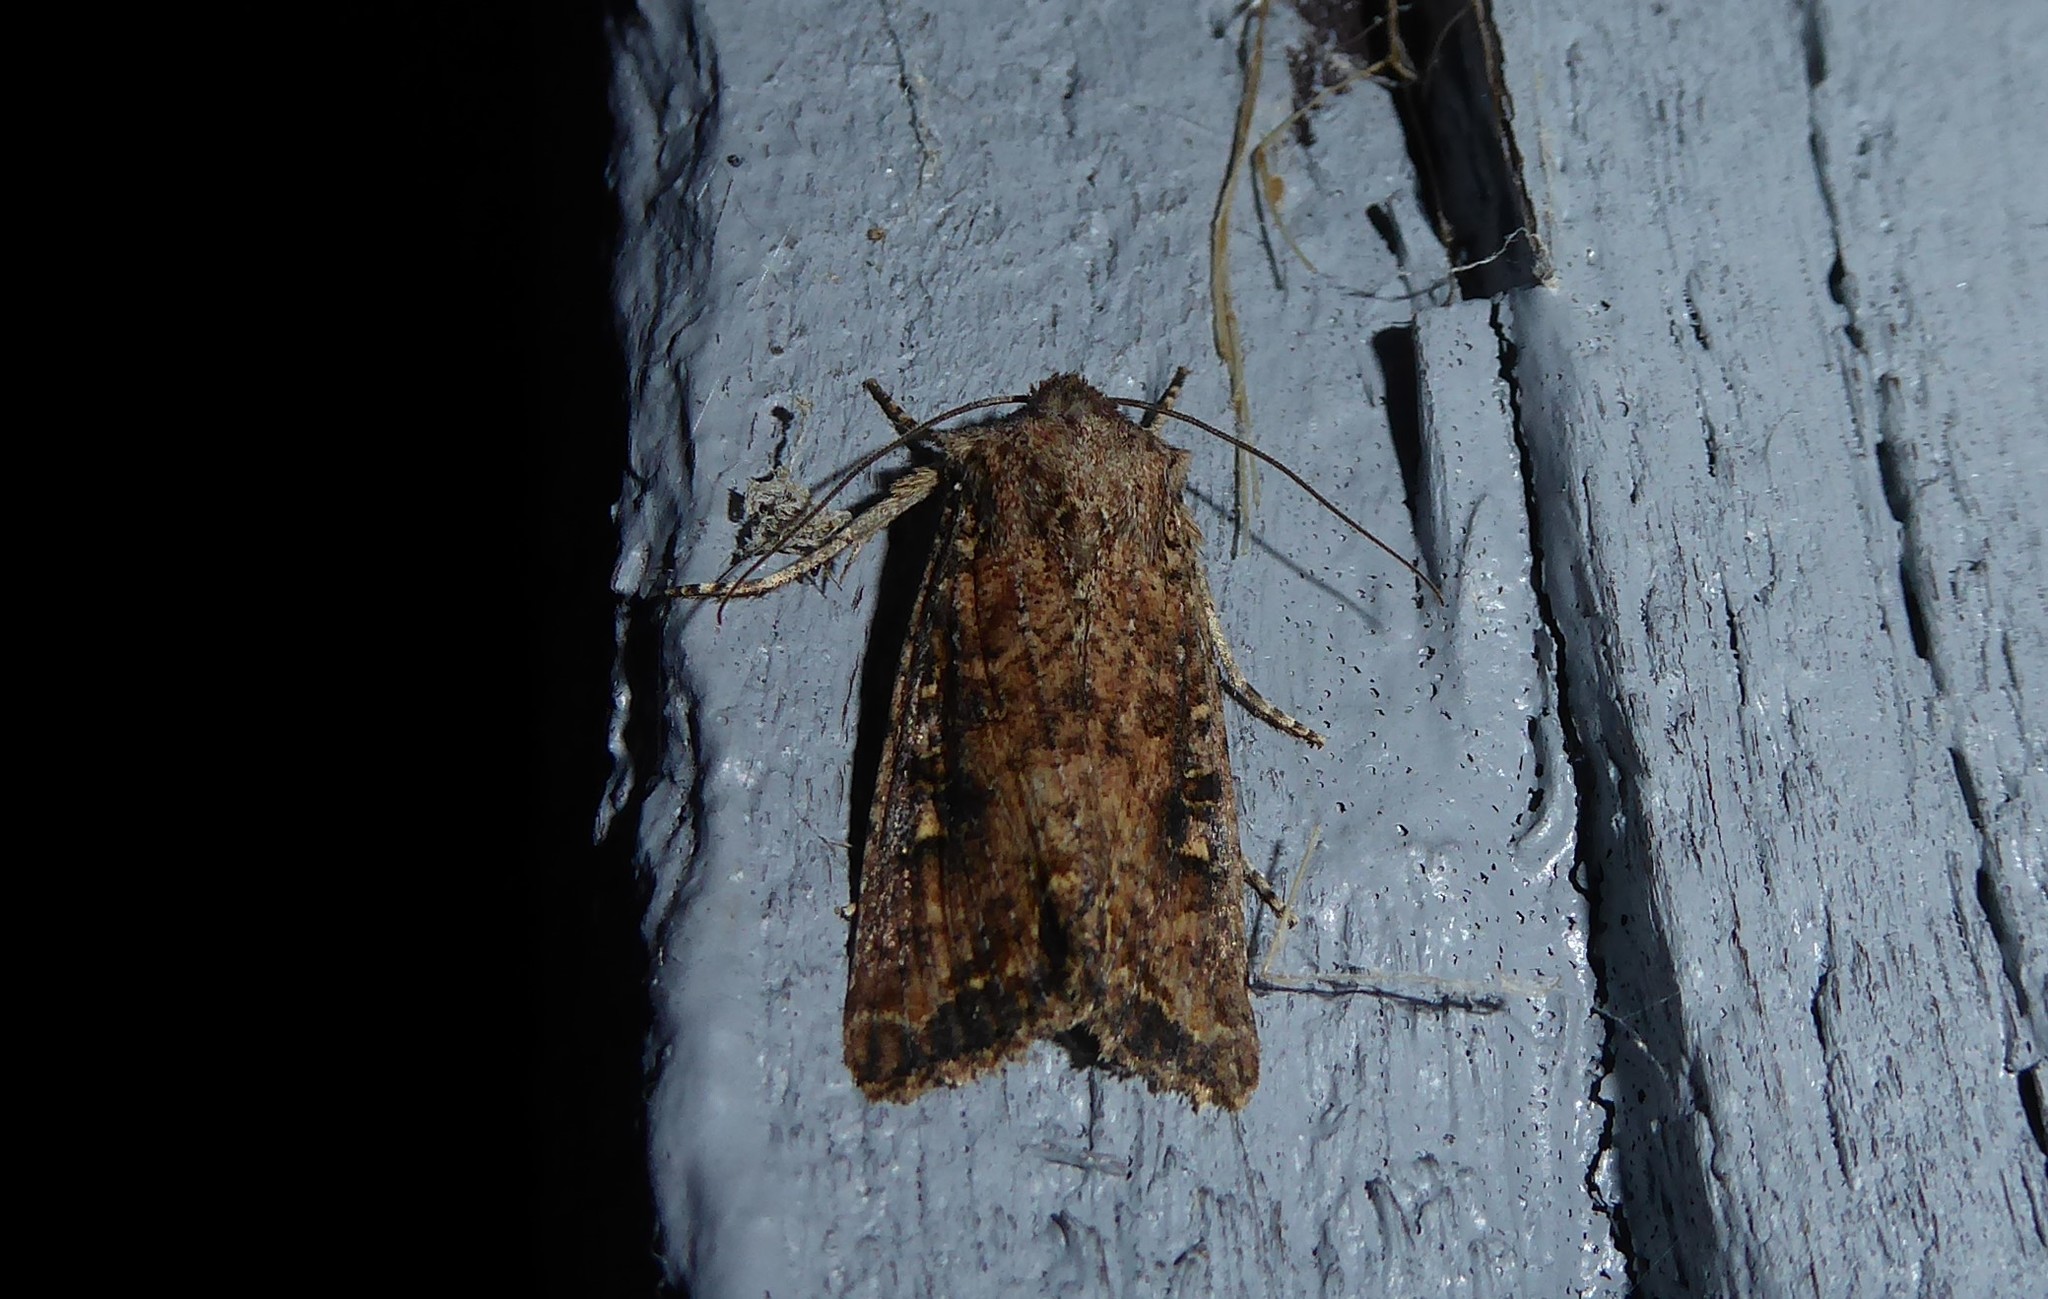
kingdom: Animalia
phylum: Arthropoda
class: Insecta
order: Lepidoptera
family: Noctuidae
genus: Ichneutica
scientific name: Ichneutica morosa
